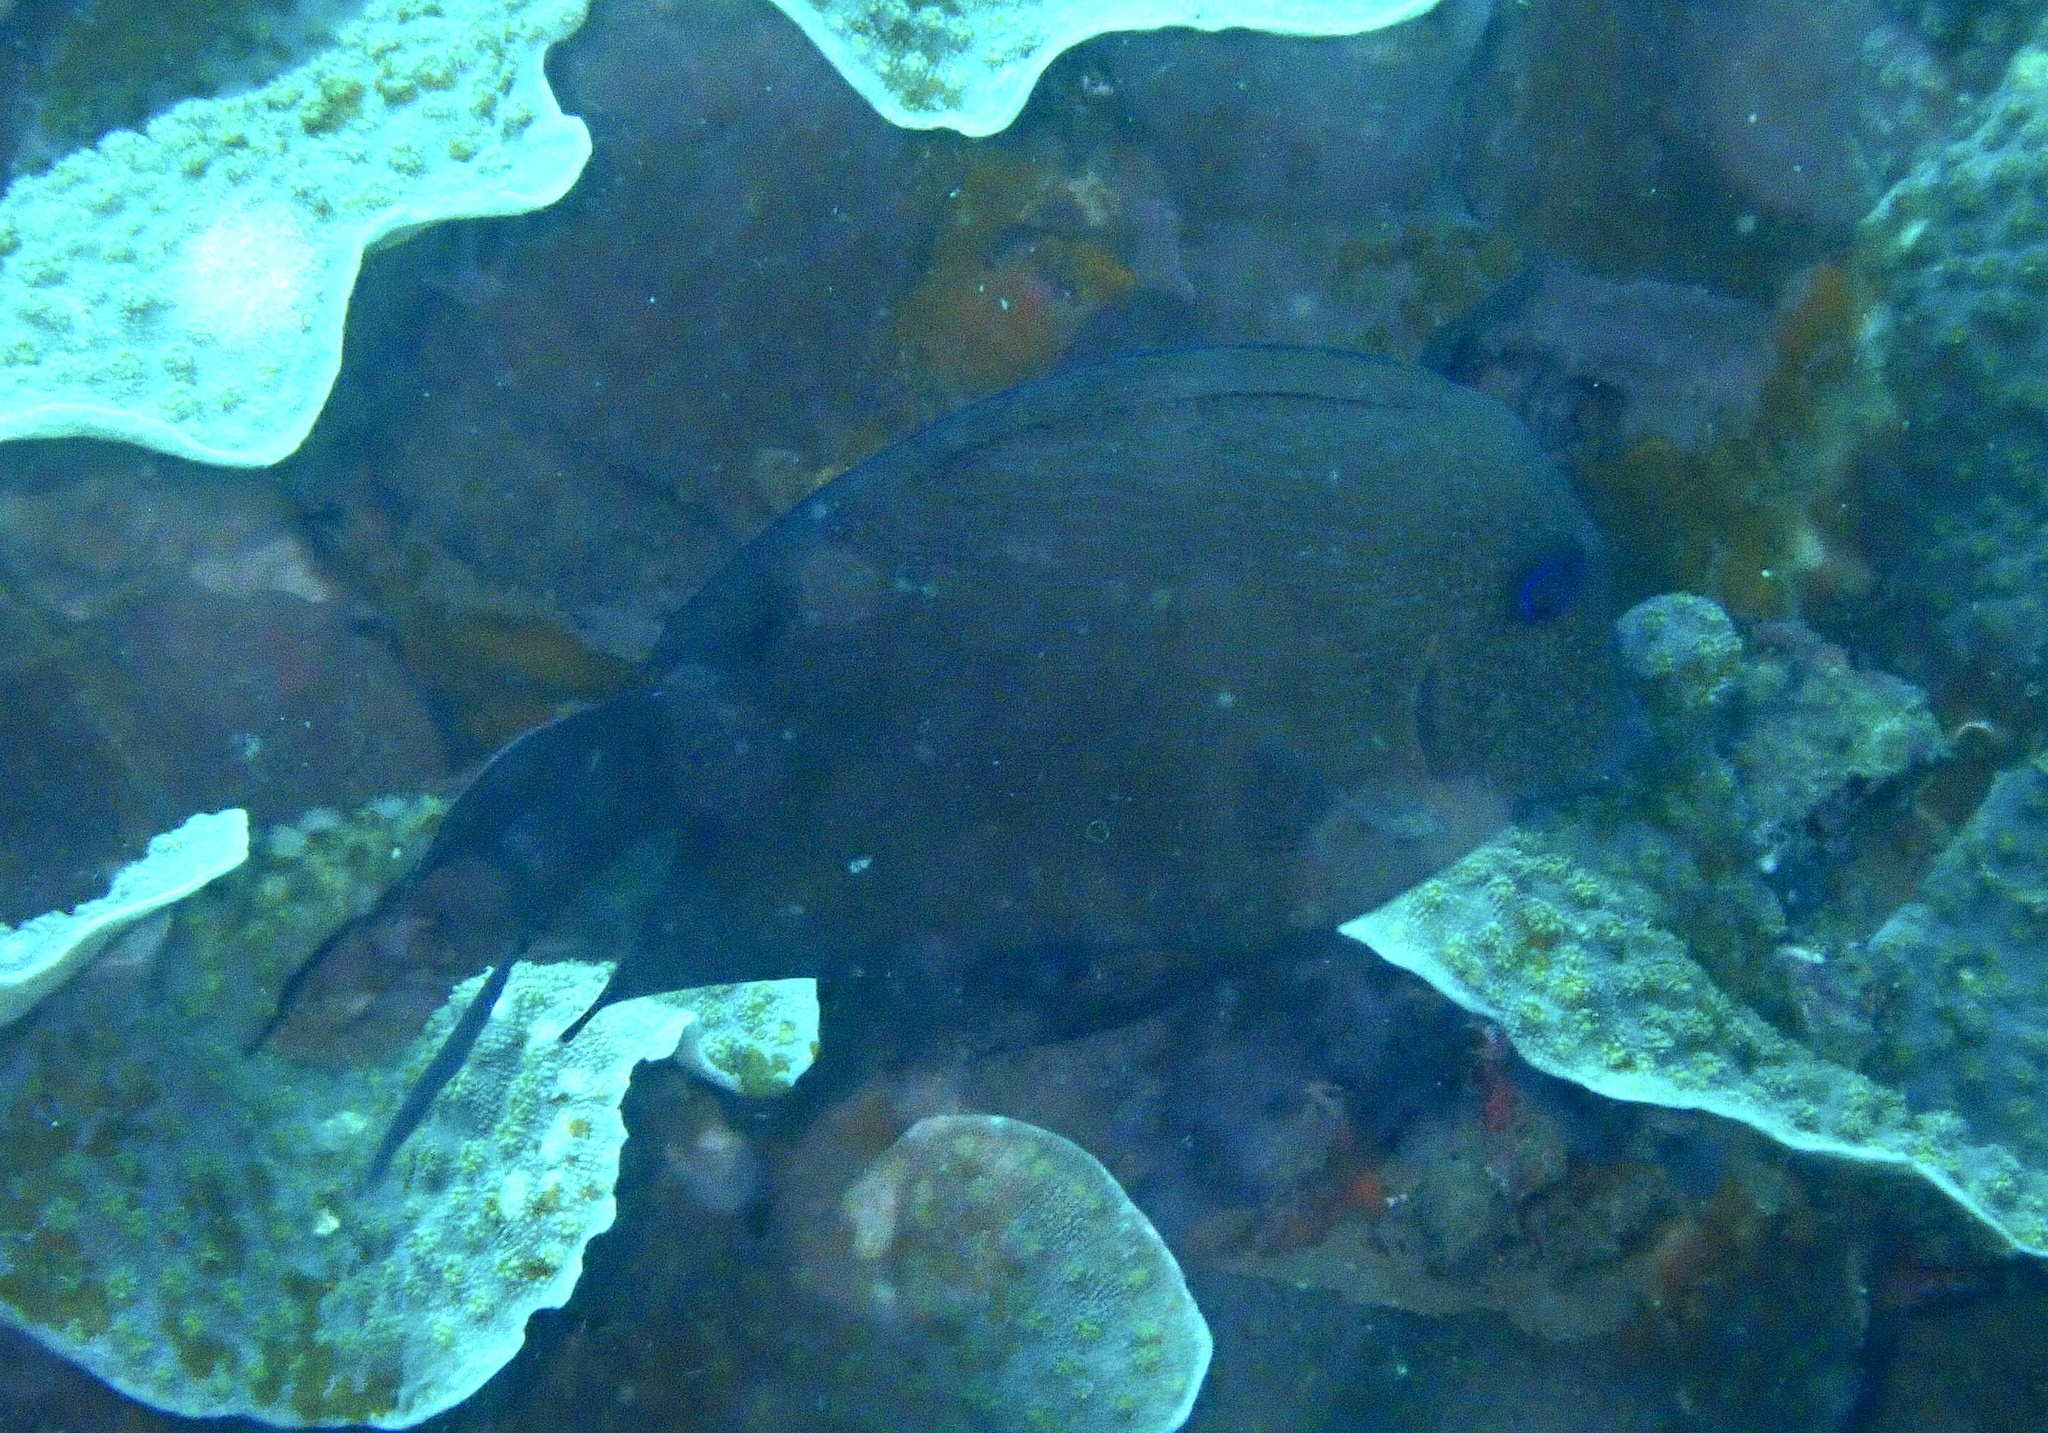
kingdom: Animalia
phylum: Chordata
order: Perciformes
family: Acanthuridae
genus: Ctenochaetus
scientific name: Ctenochaetus binotatus
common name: Two-spot bristletooth
